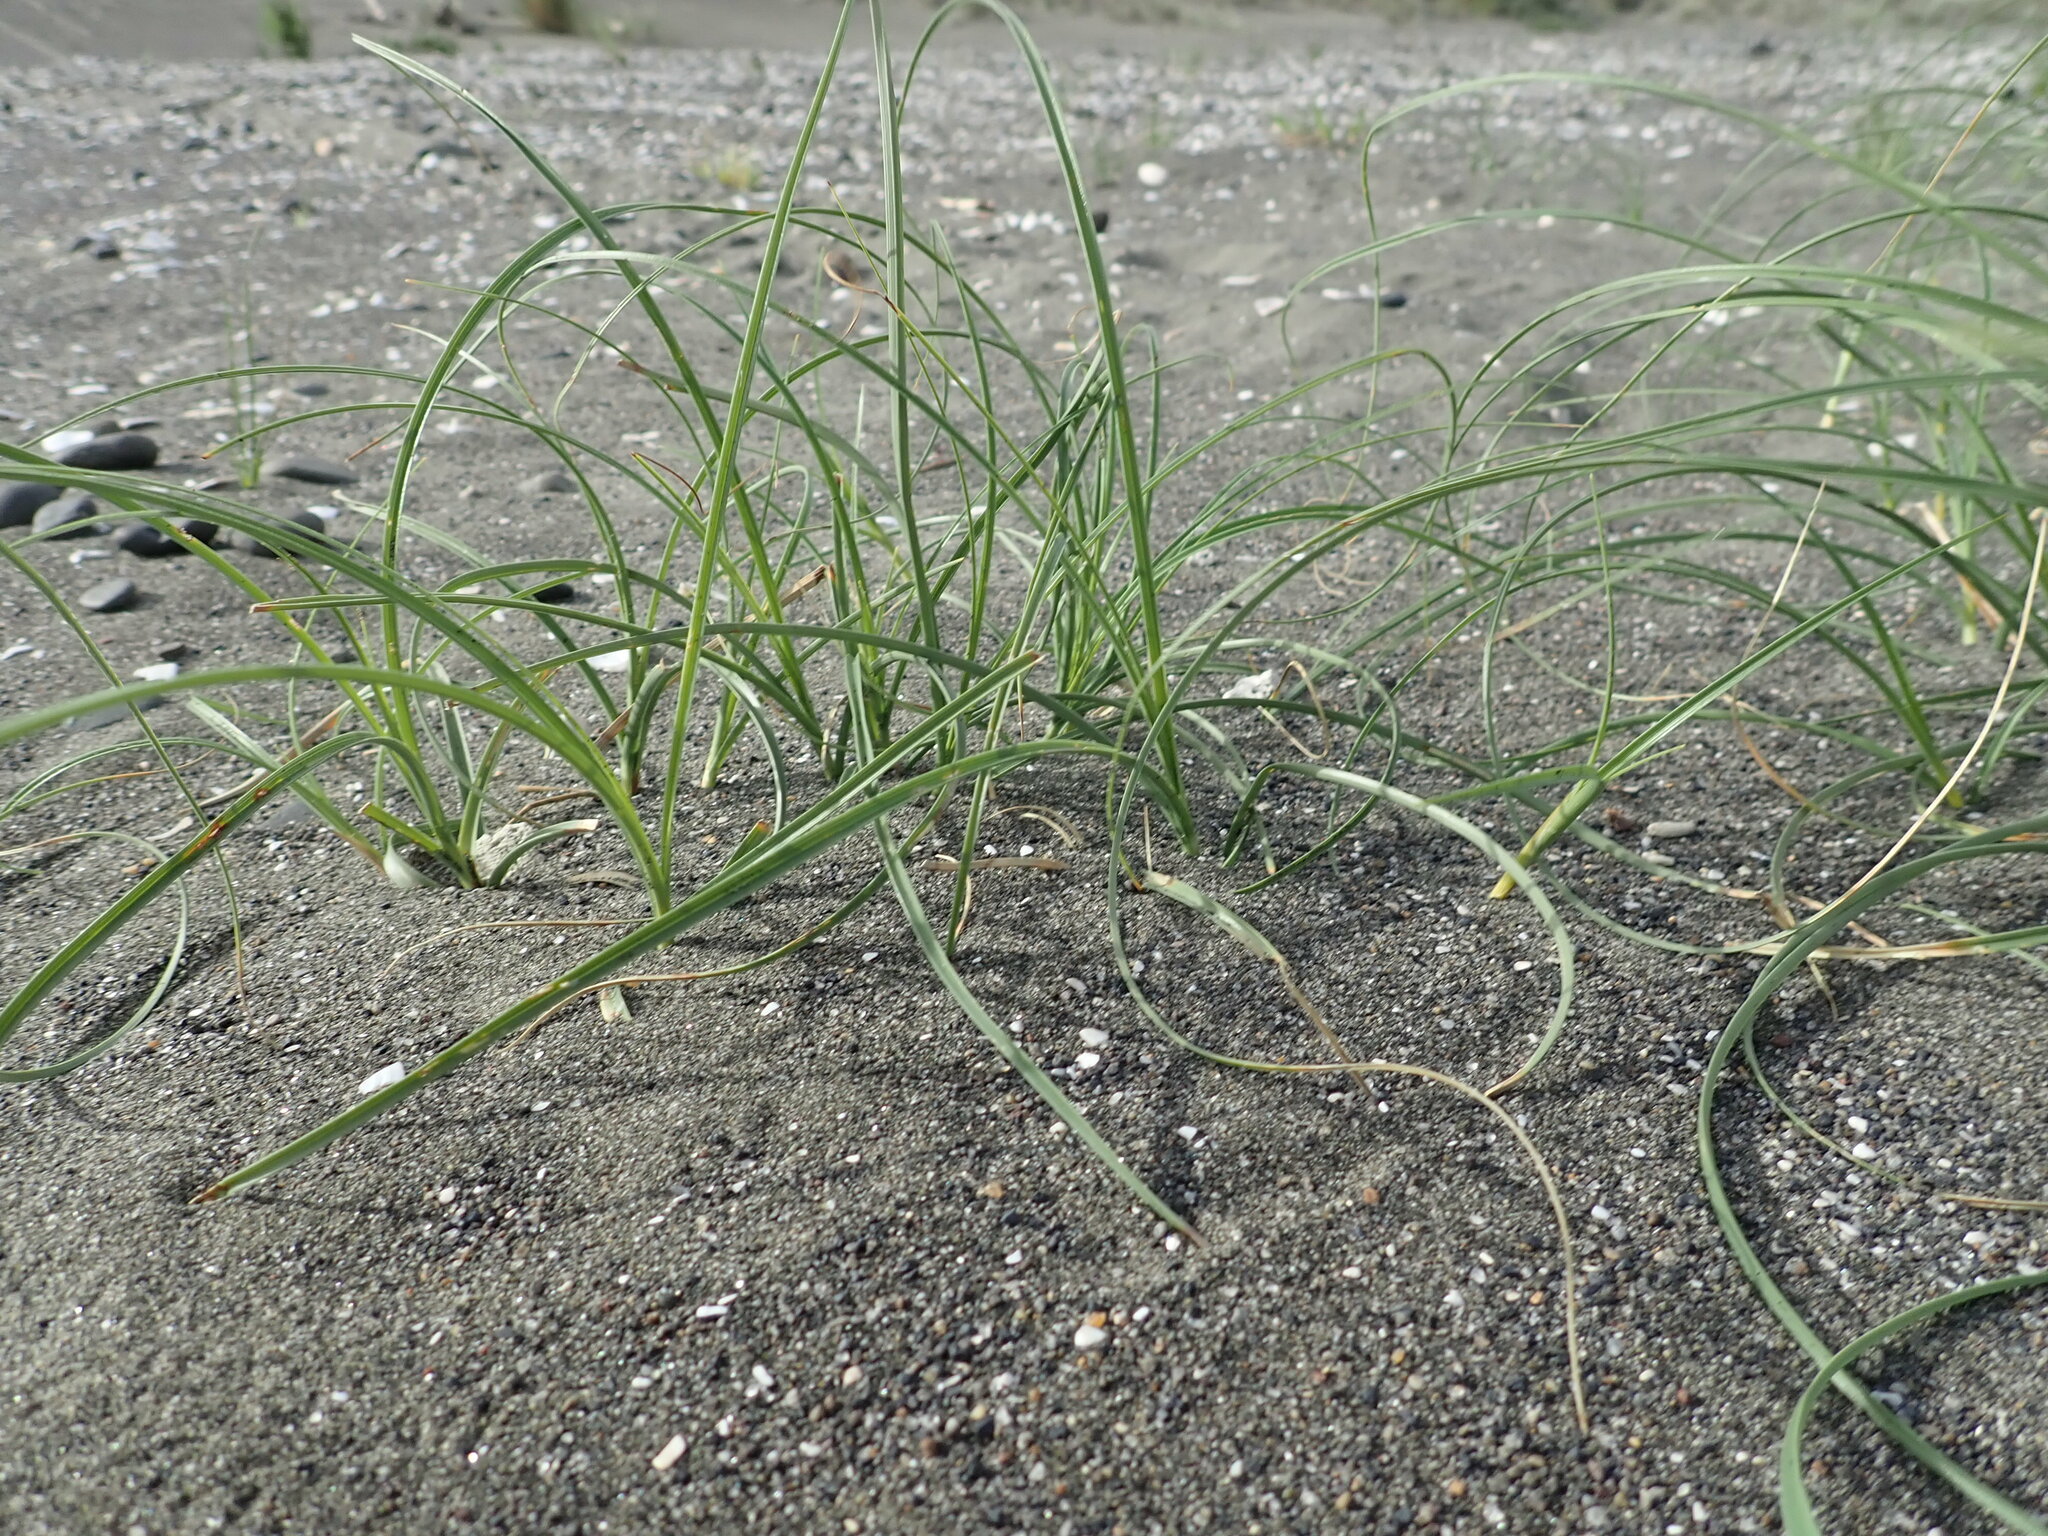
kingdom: Plantae
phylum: Tracheophyta
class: Liliopsida
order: Poales
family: Cyperaceae
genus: Carex
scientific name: Carex pumila
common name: Dwarf sedge
